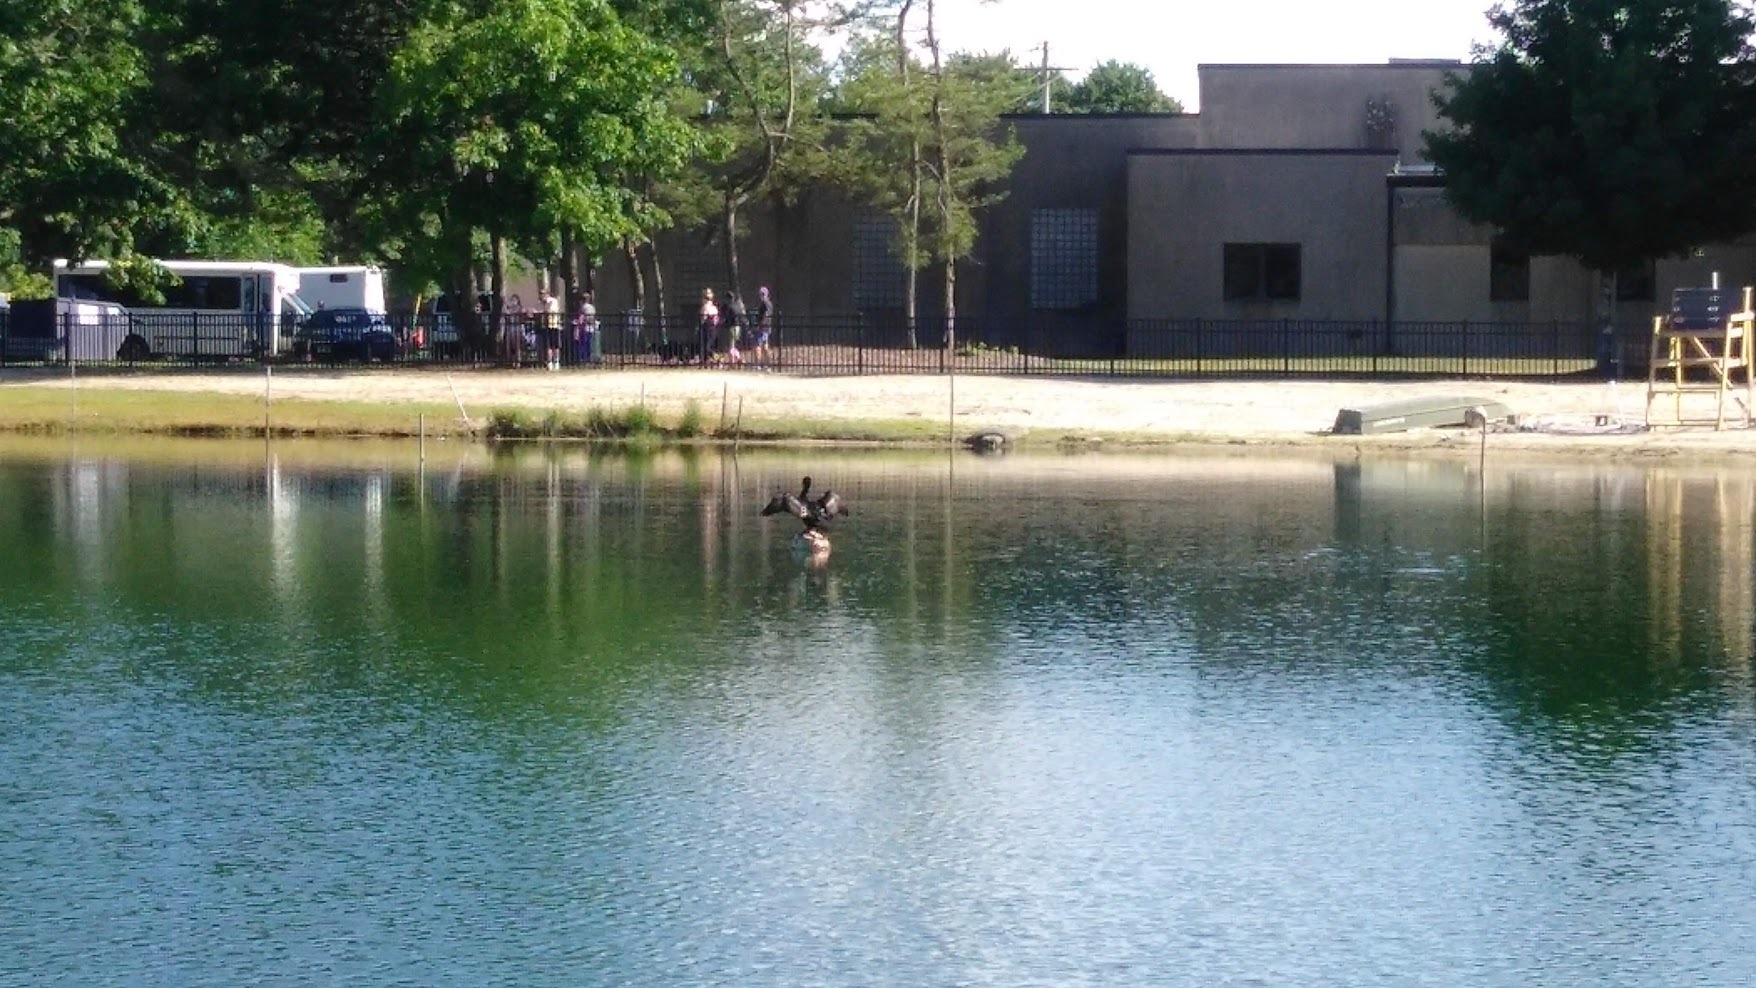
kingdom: Animalia
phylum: Chordata
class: Aves
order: Suliformes
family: Phalacrocoracidae
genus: Phalacrocorax
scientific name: Phalacrocorax auritus
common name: Double-crested cormorant
